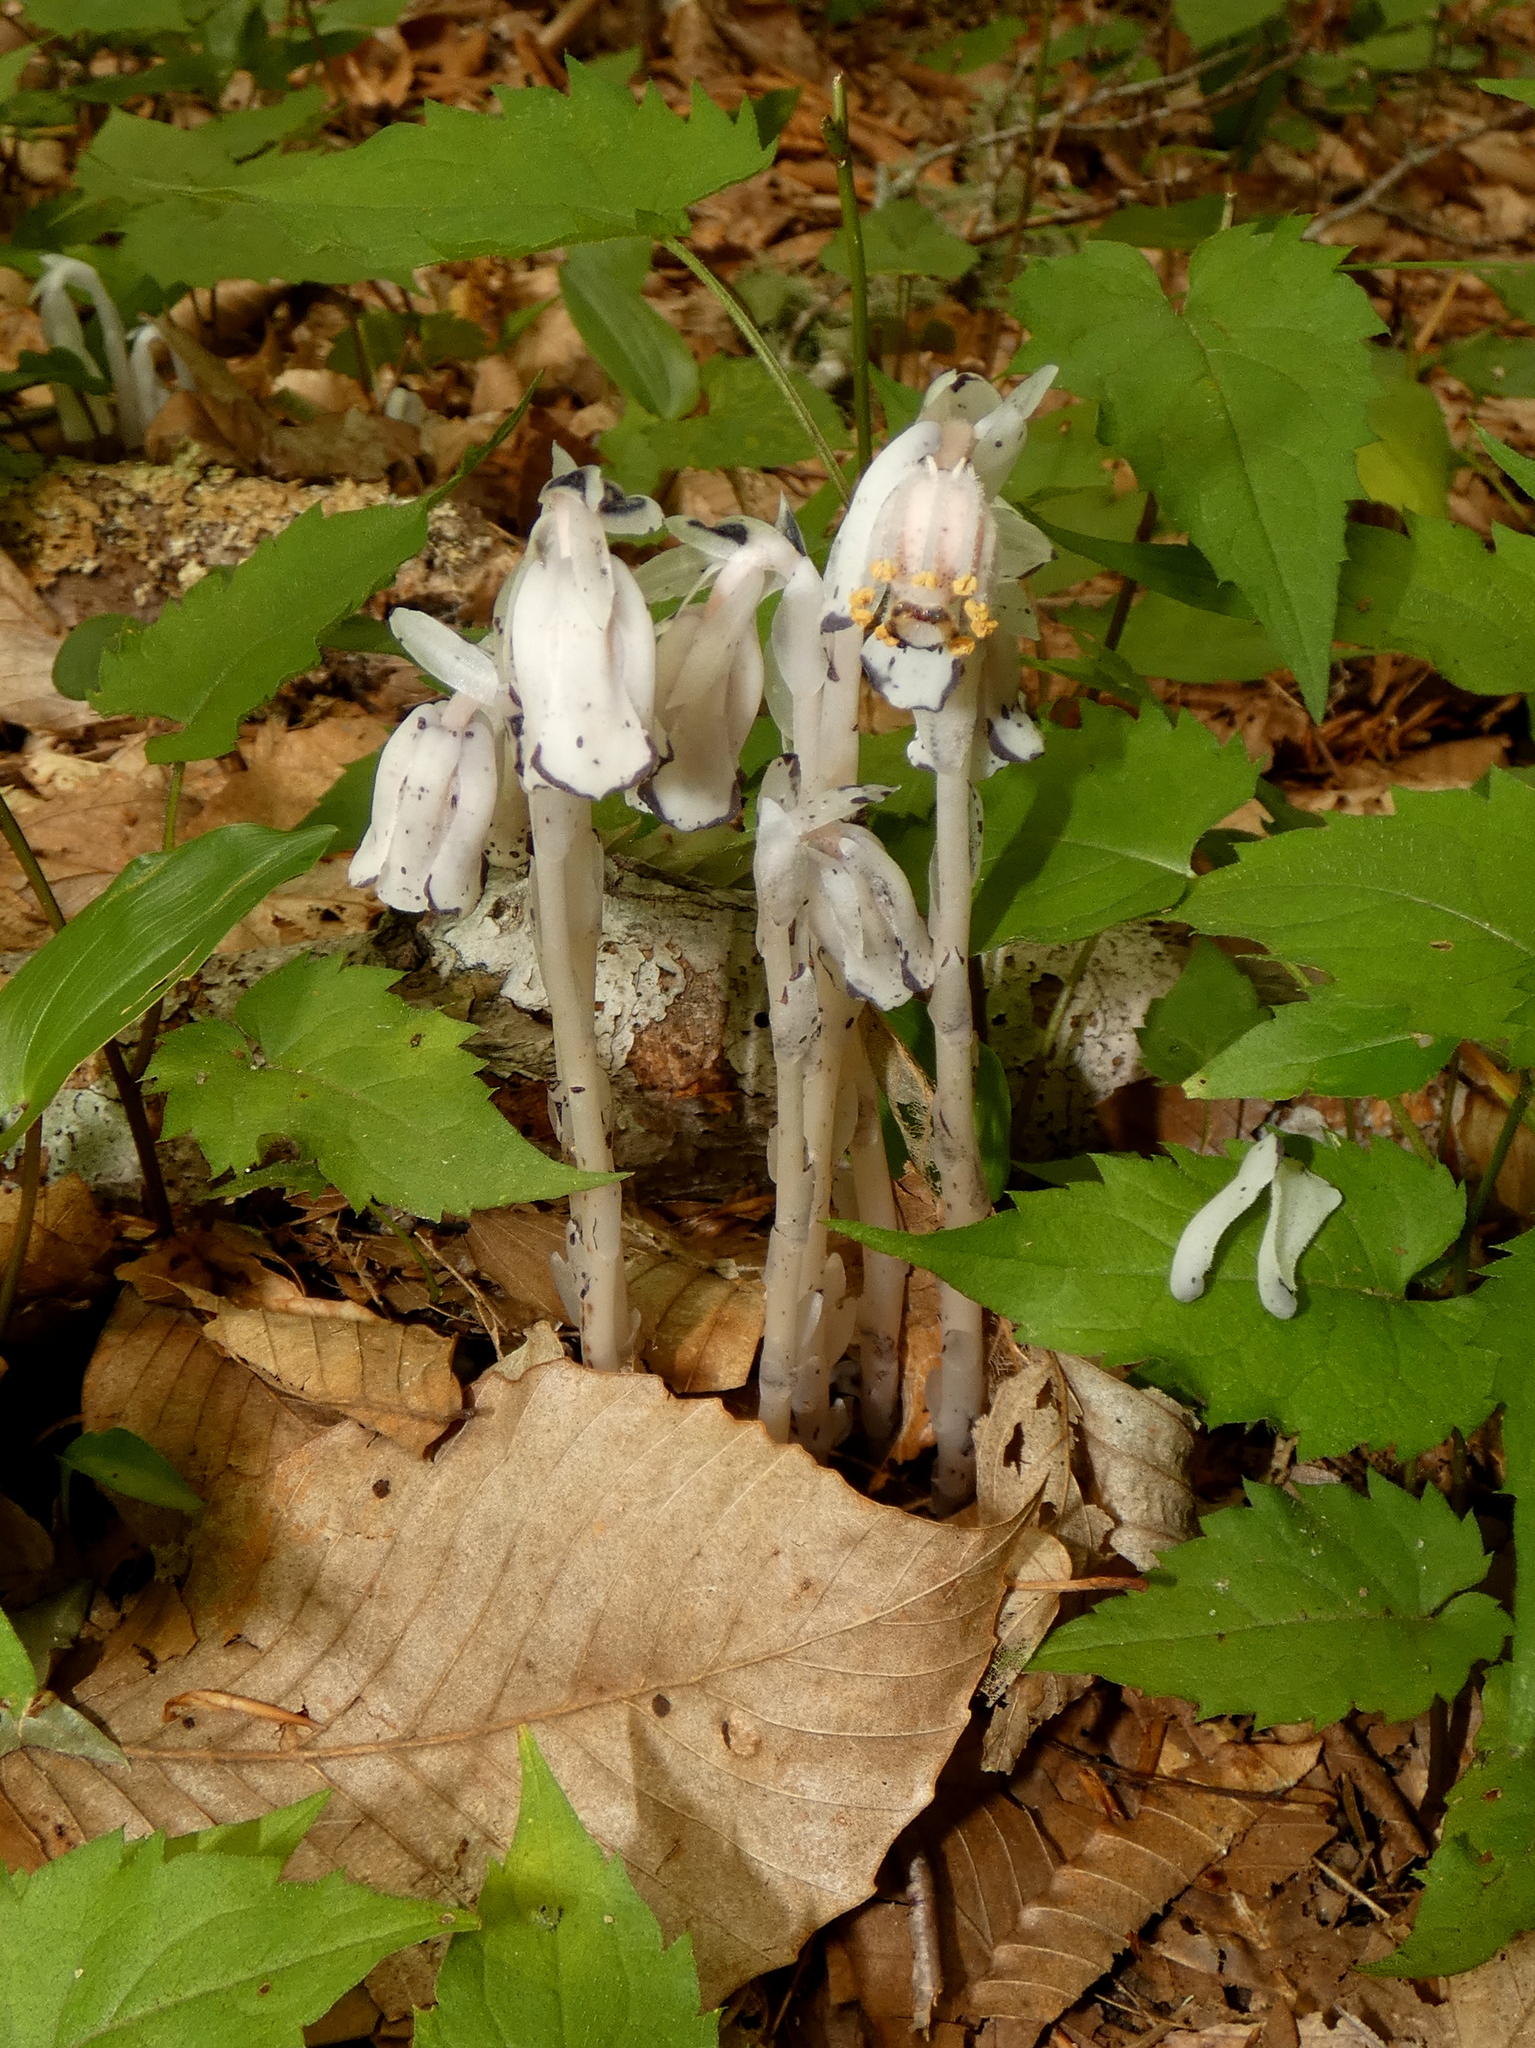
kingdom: Plantae
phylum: Tracheophyta
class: Magnoliopsida
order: Ericales
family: Ericaceae
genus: Monotropa
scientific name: Monotropa uniflora
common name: Convulsion root
